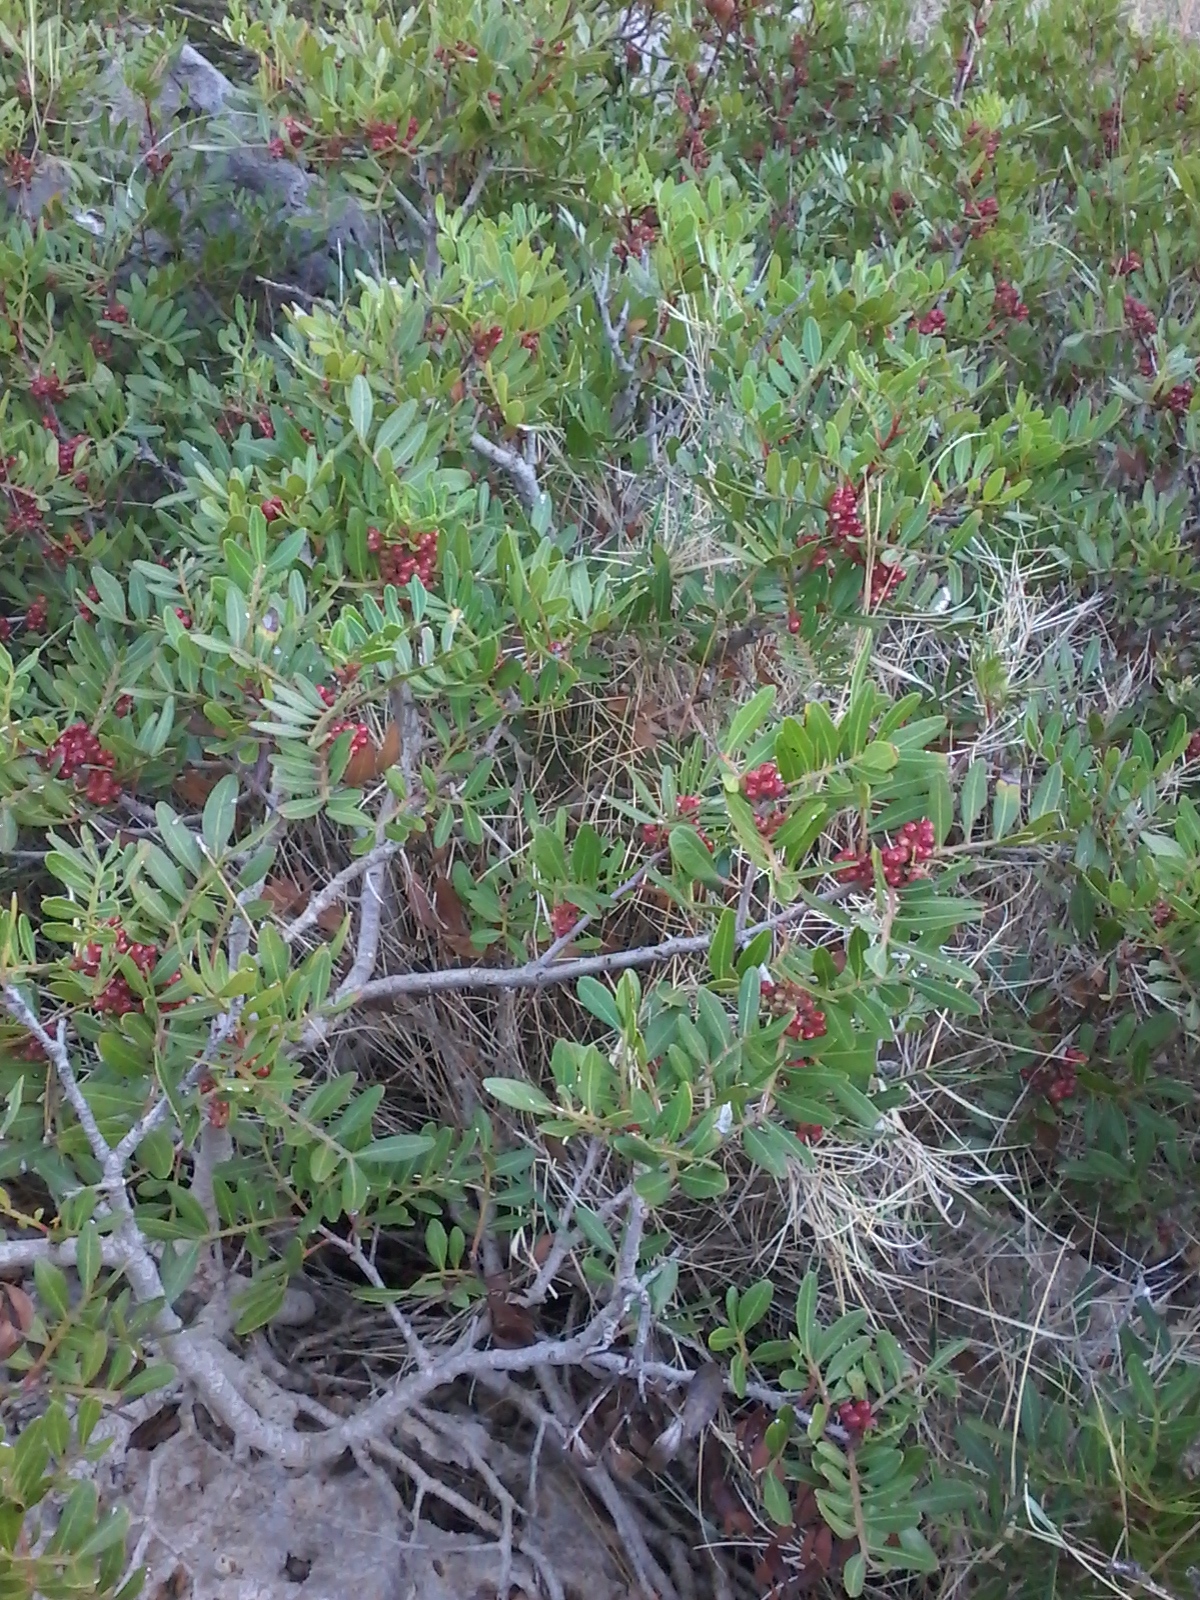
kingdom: Plantae
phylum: Tracheophyta
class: Magnoliopsida
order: Sapindales
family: Anacardiaceae
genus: Pistacia
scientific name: Pistacia lentiscus
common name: Lentisk
